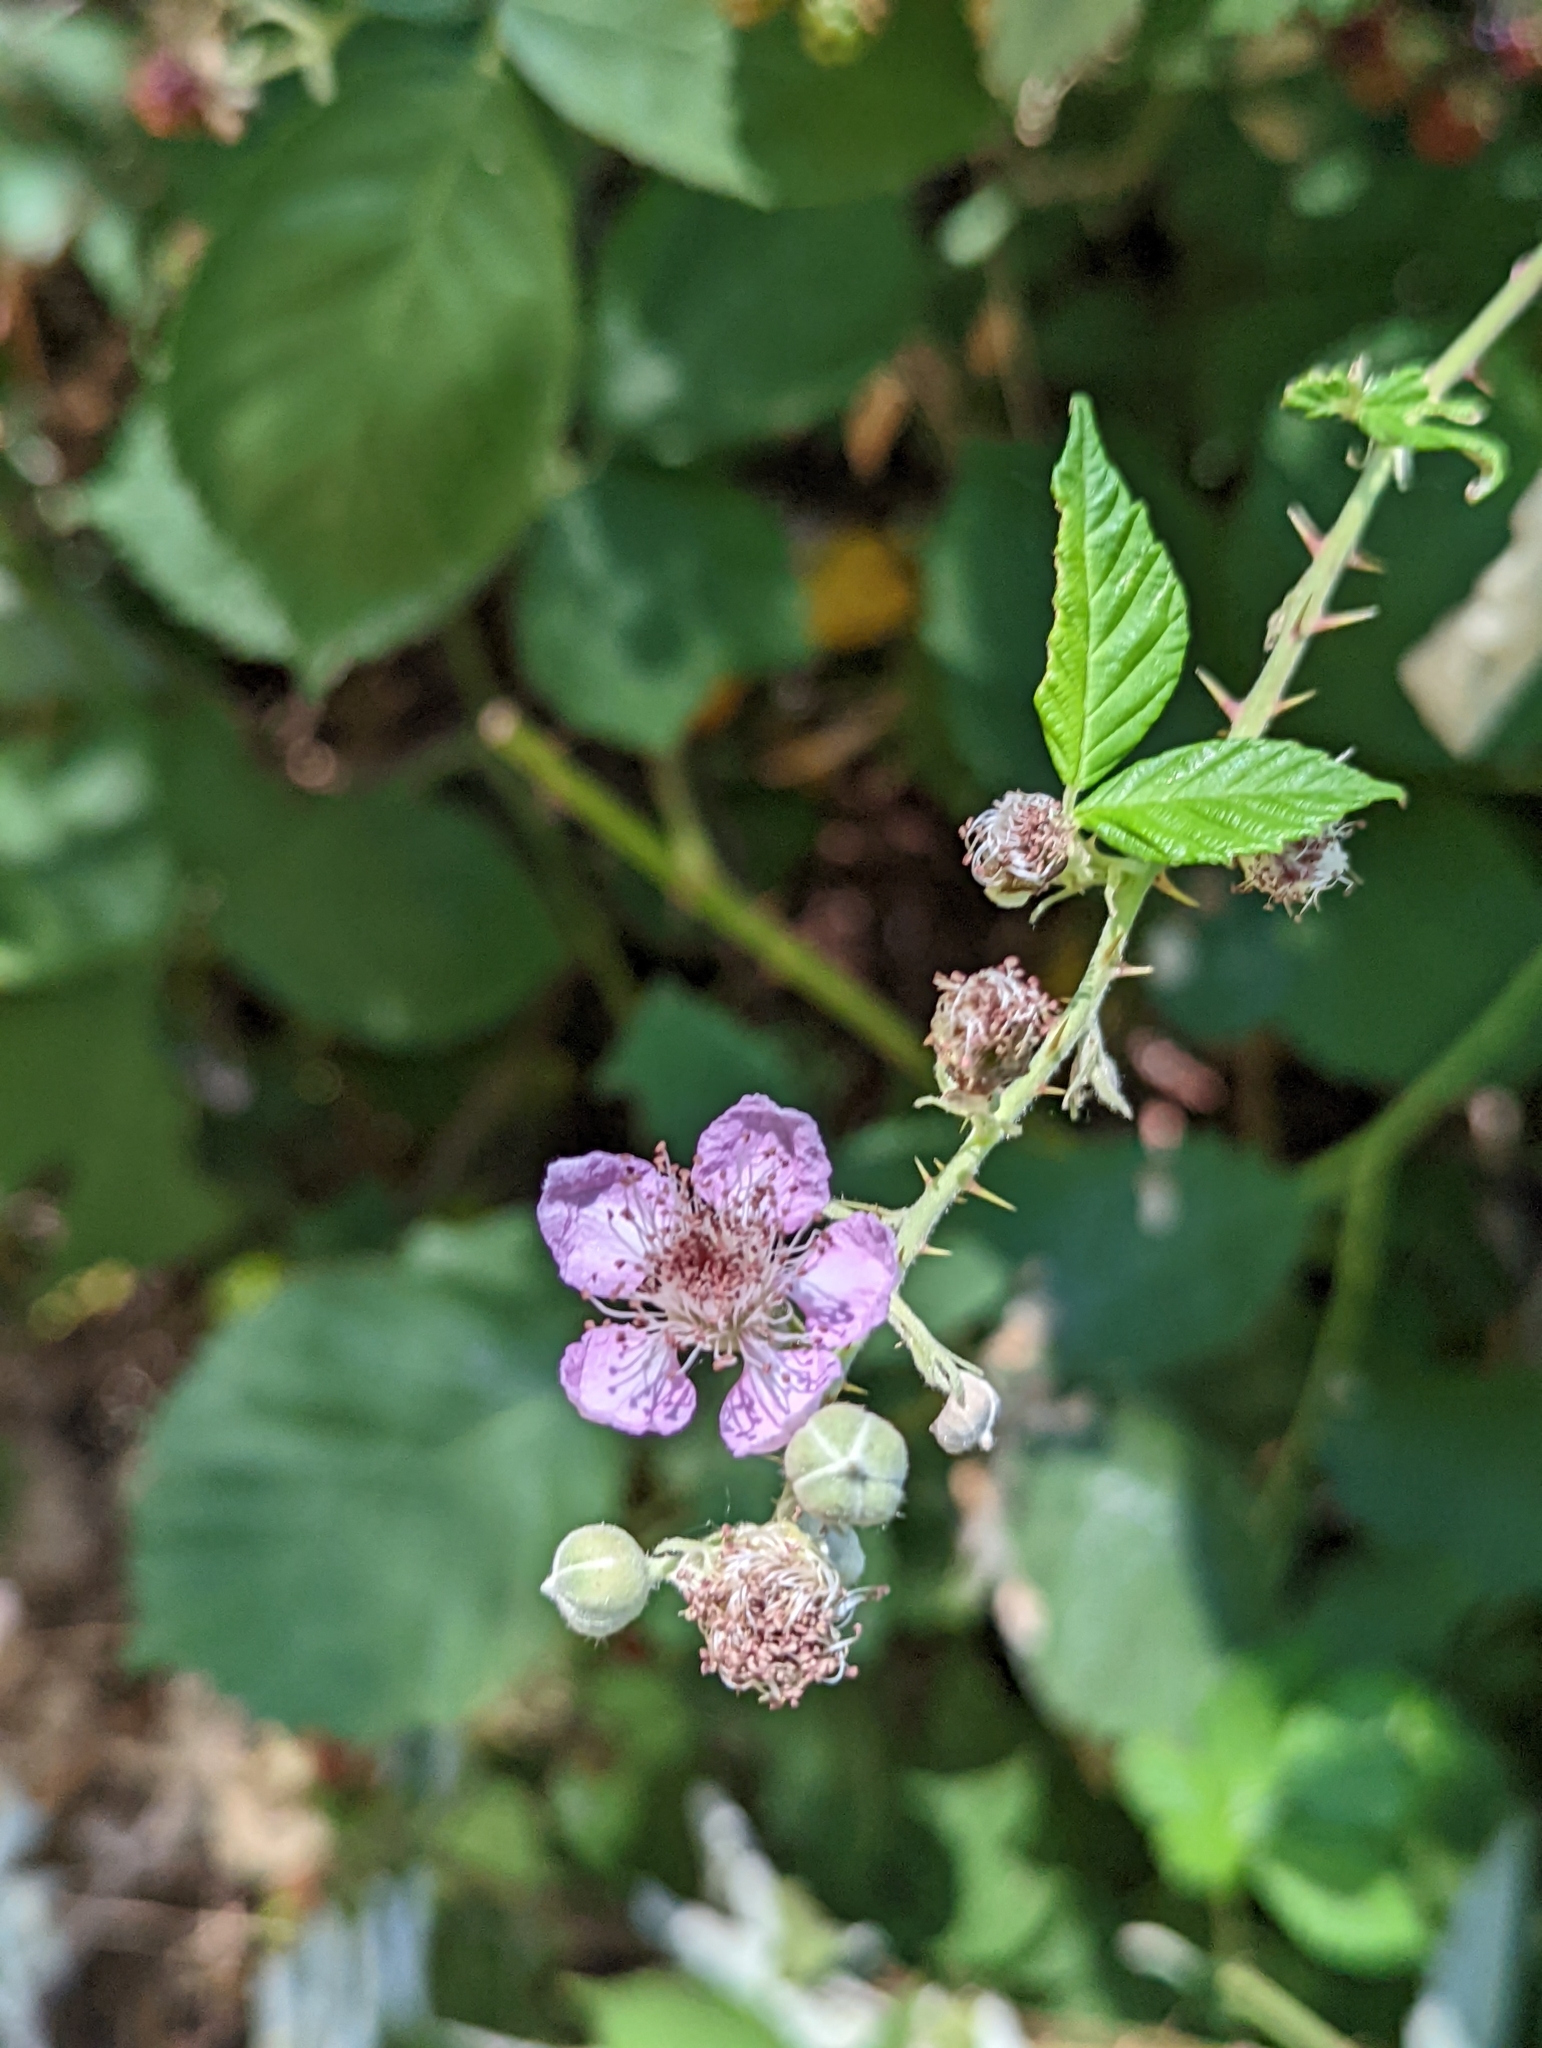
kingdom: Plantae
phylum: Tracheophyta
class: Magnoliopsida
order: Rosales
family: Rosaceae
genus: Rubus
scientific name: Rubus armeniacus
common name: Himalayan blackberry
